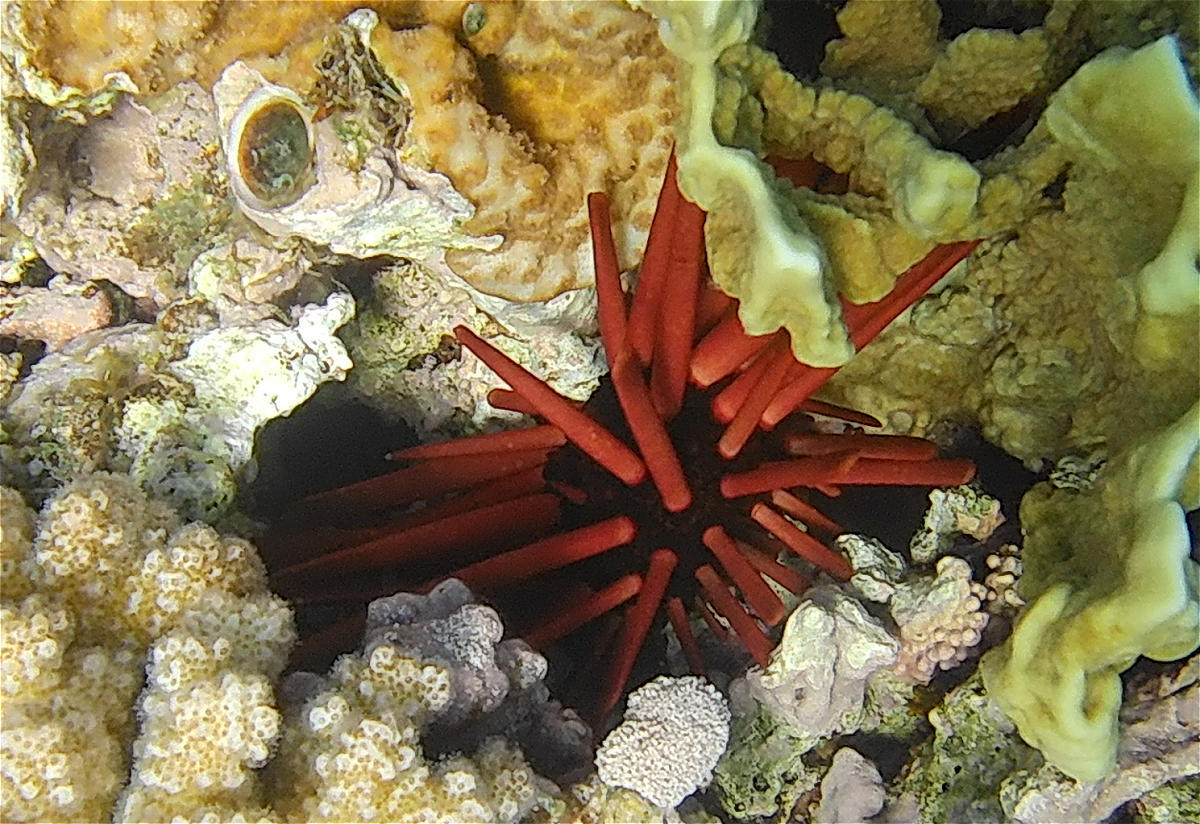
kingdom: Animalia
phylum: Echinodermata
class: Echinoidea
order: Camarodonta
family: Echinometridae
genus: Heterocentrotus
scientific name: Heterocentrotus mamillatus
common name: Slate pencil urchin
